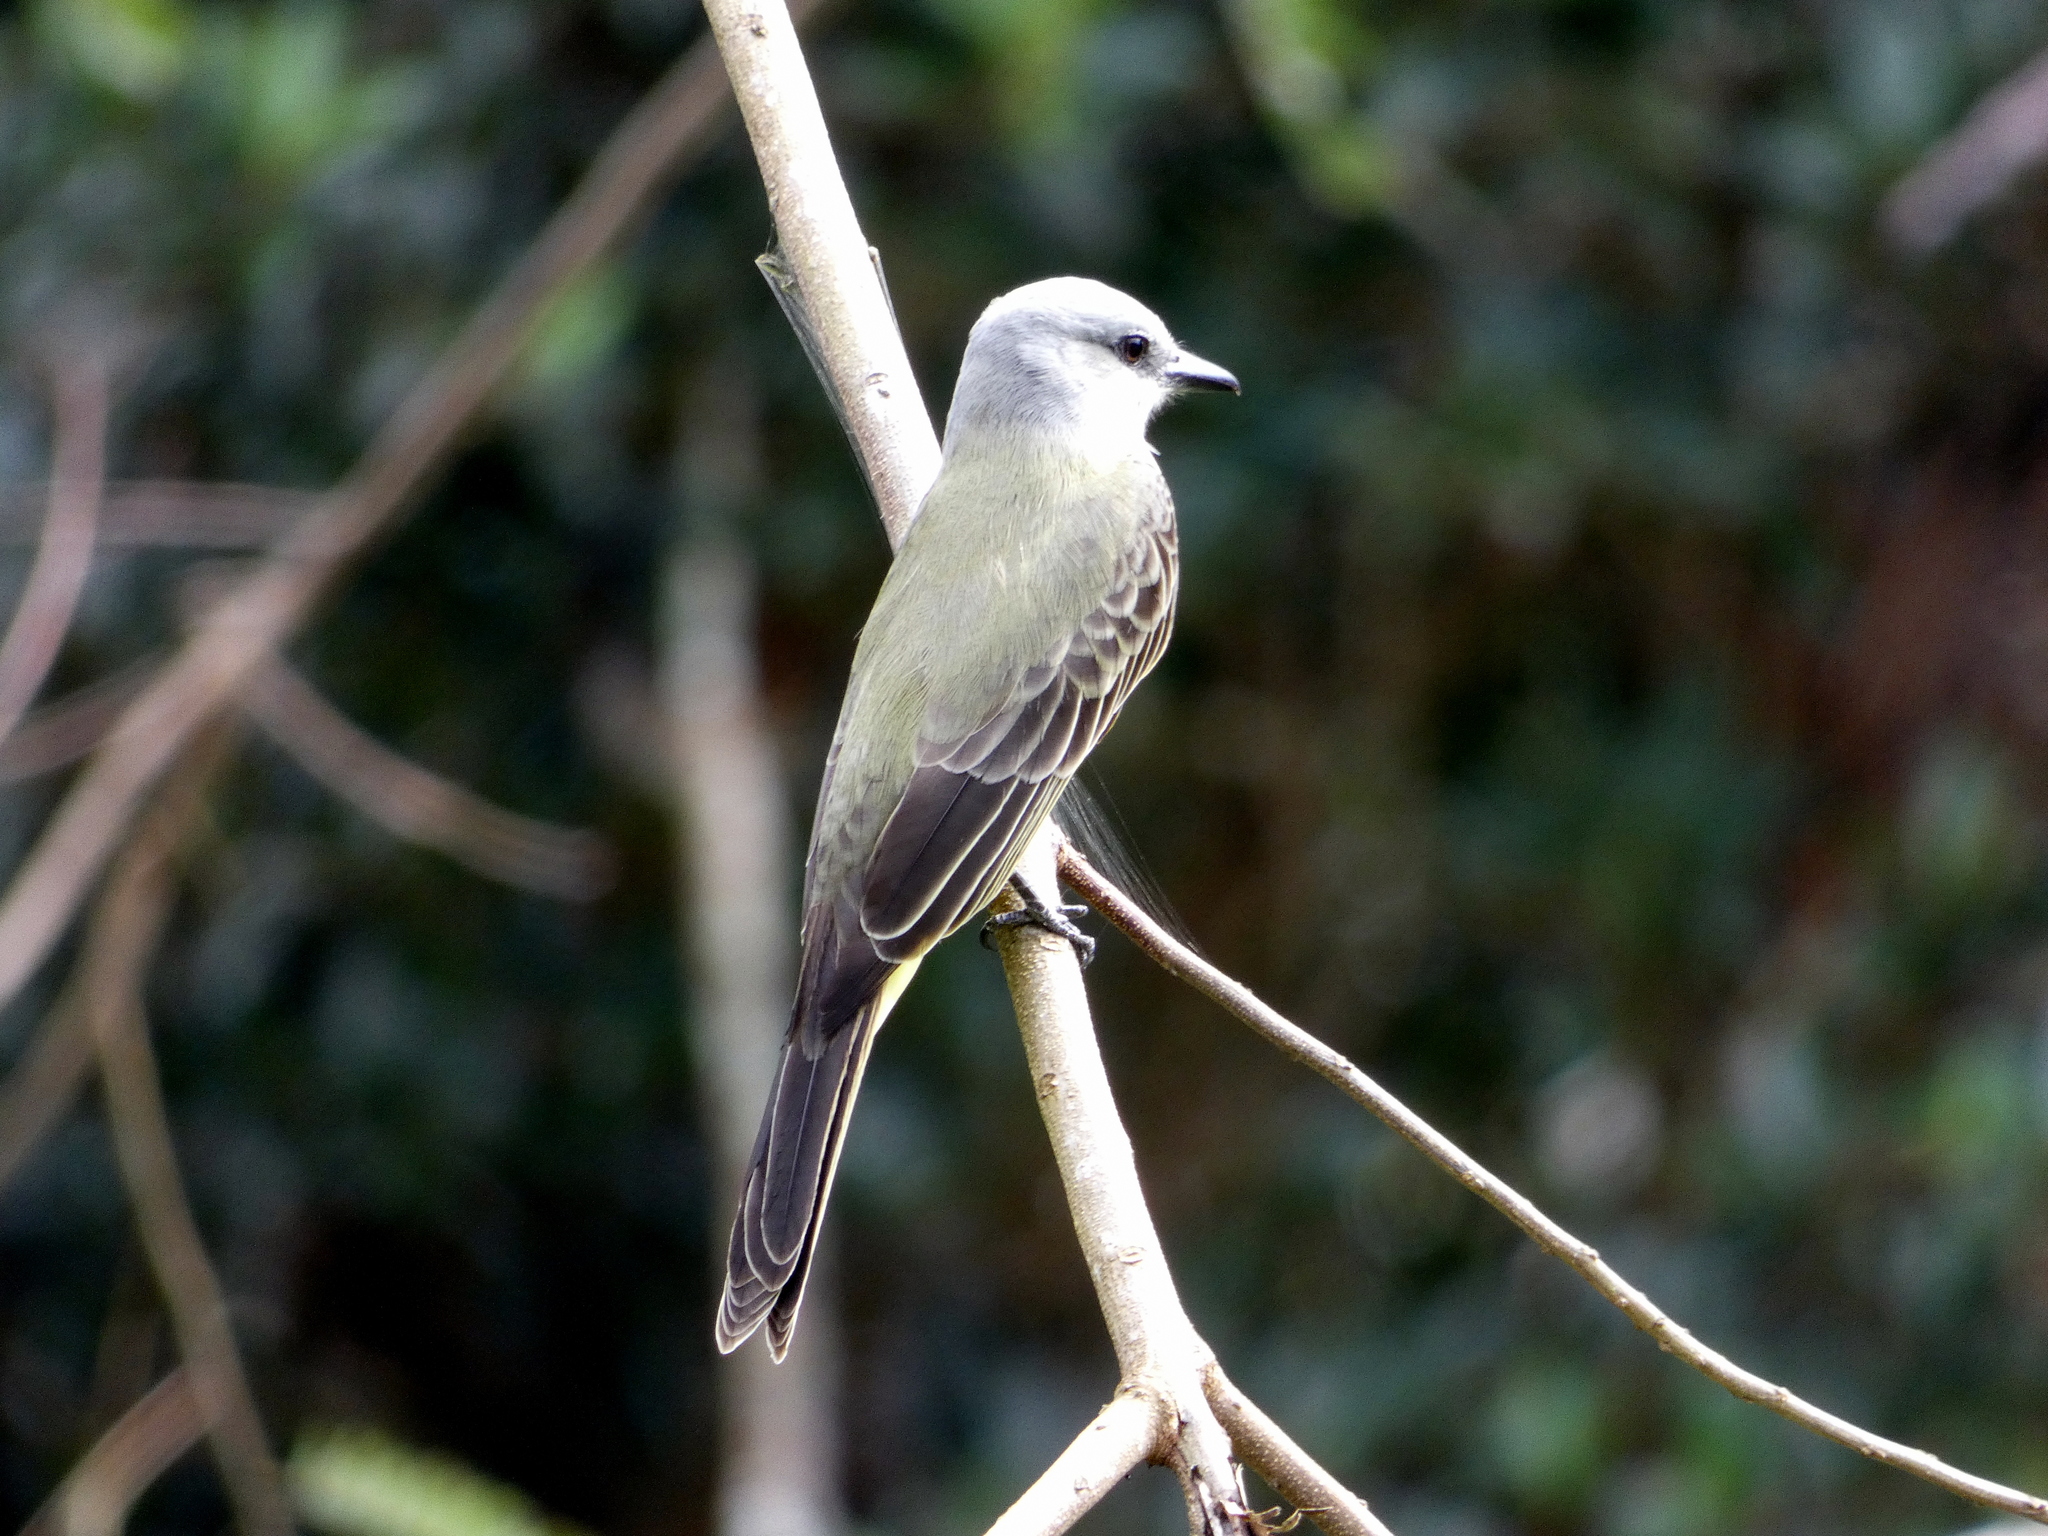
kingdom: Animalia
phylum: Chordata
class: Aves
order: Passeriformes
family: Tyrannidae
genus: Tyrannus
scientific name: Tyrannus melancholicus
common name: Tropical kingbird
